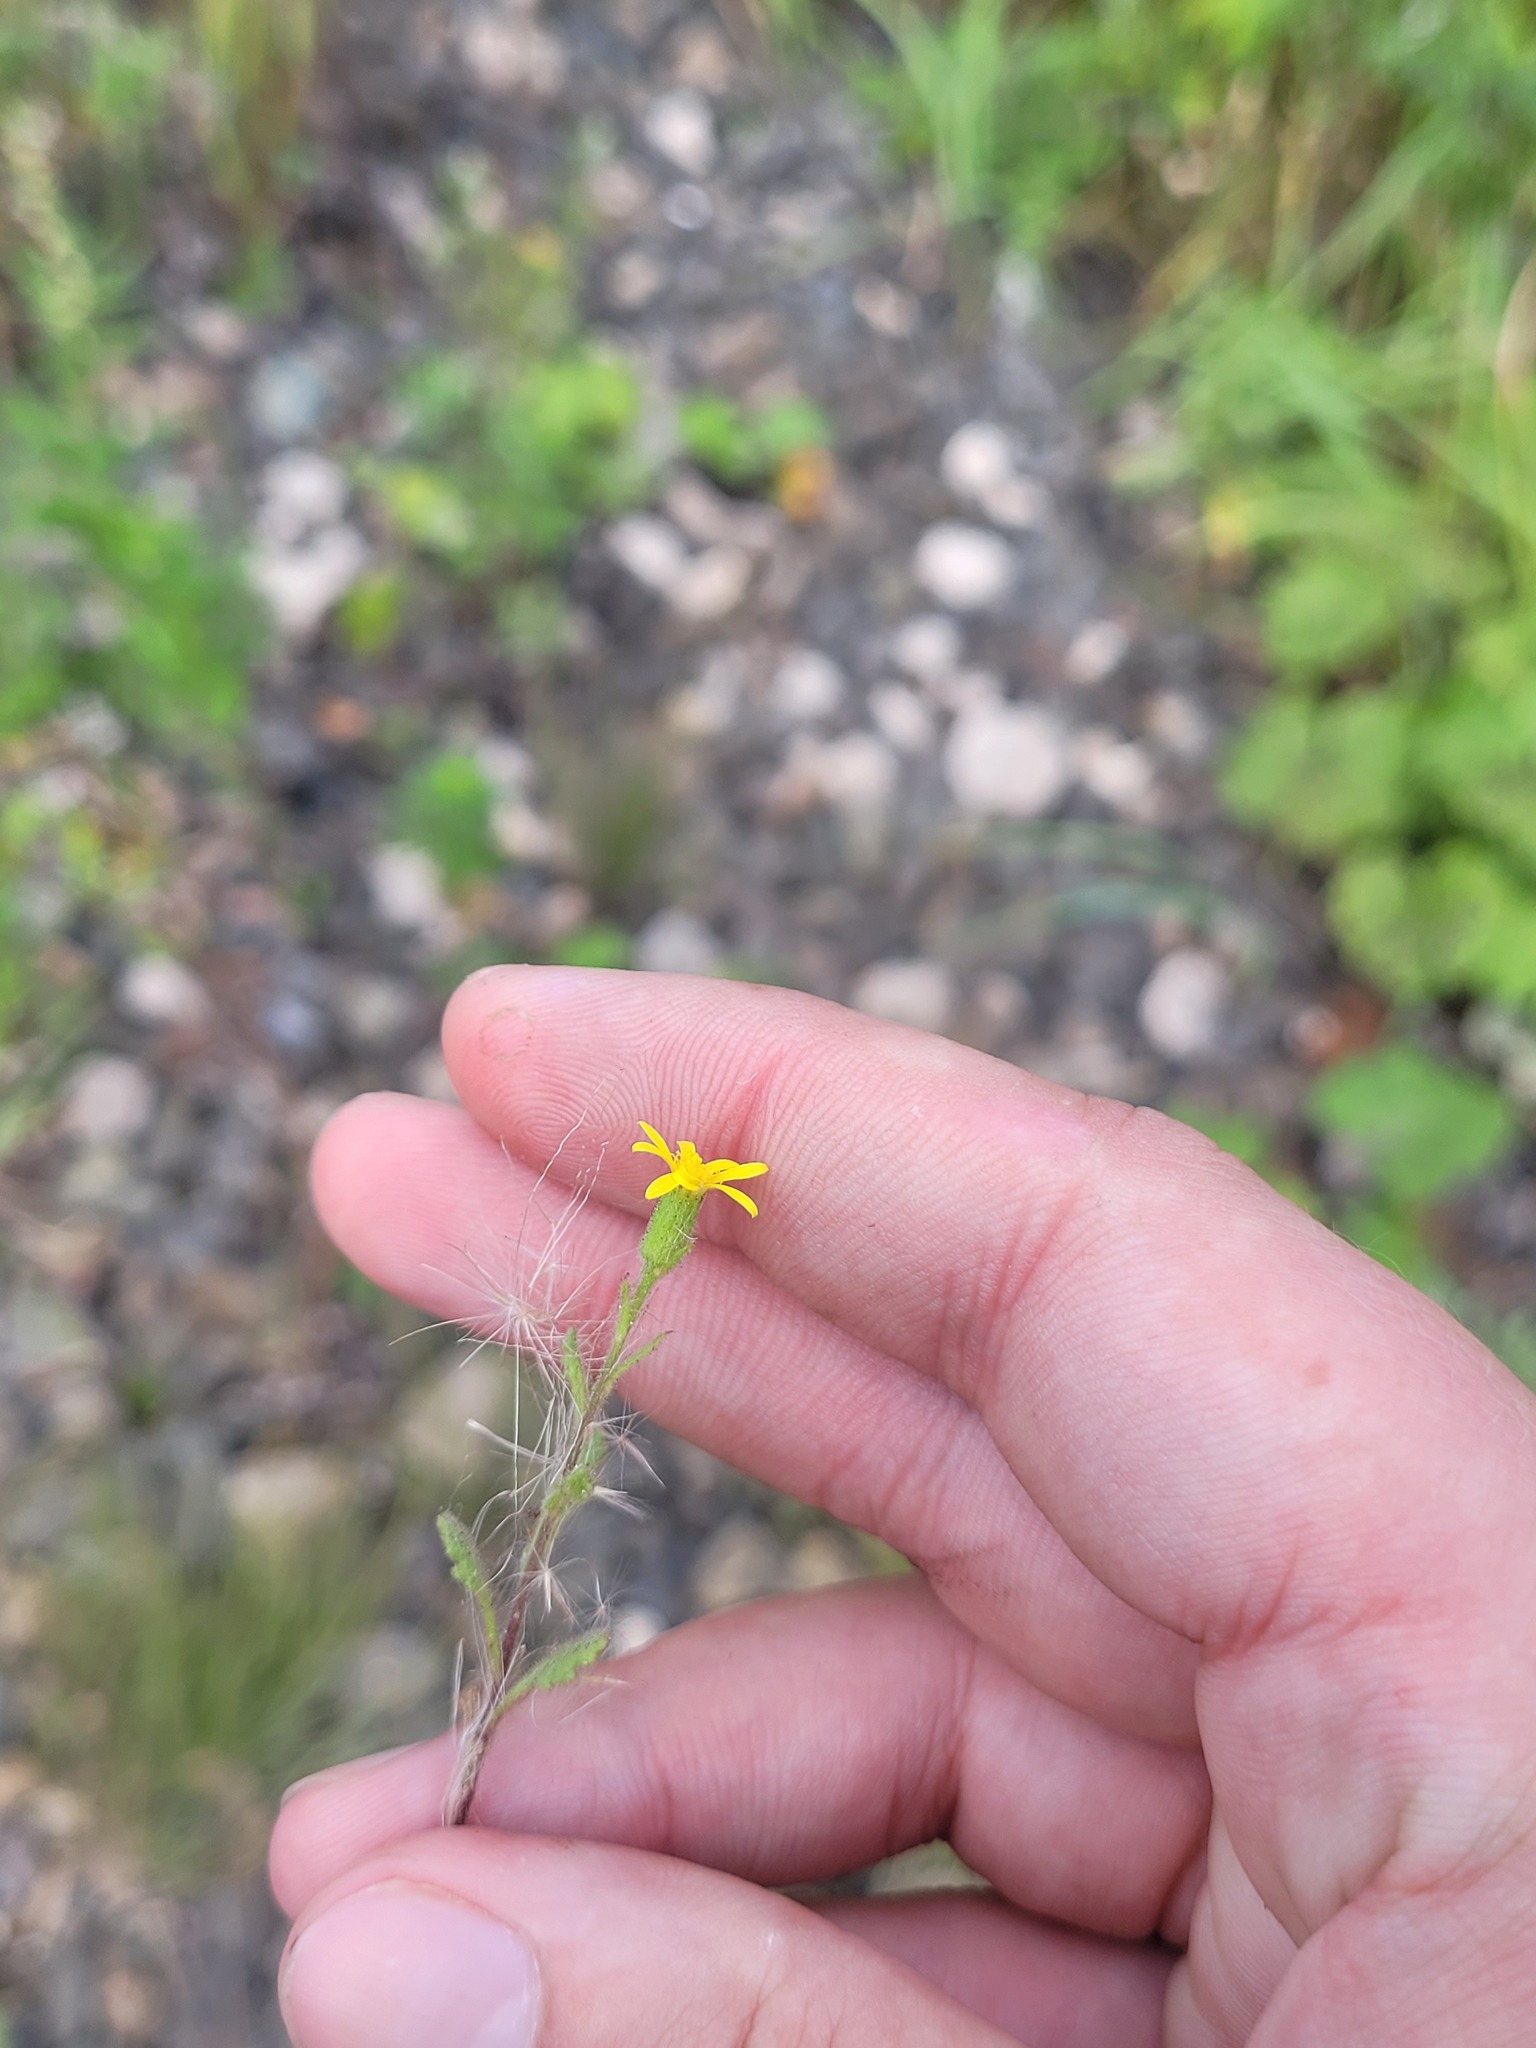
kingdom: Plantae
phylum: Tracheophyta
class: Magnoliopsida
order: Asterales
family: Asteraceae
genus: Senecio
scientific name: Senecio viscosus
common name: Sticky groundsel
